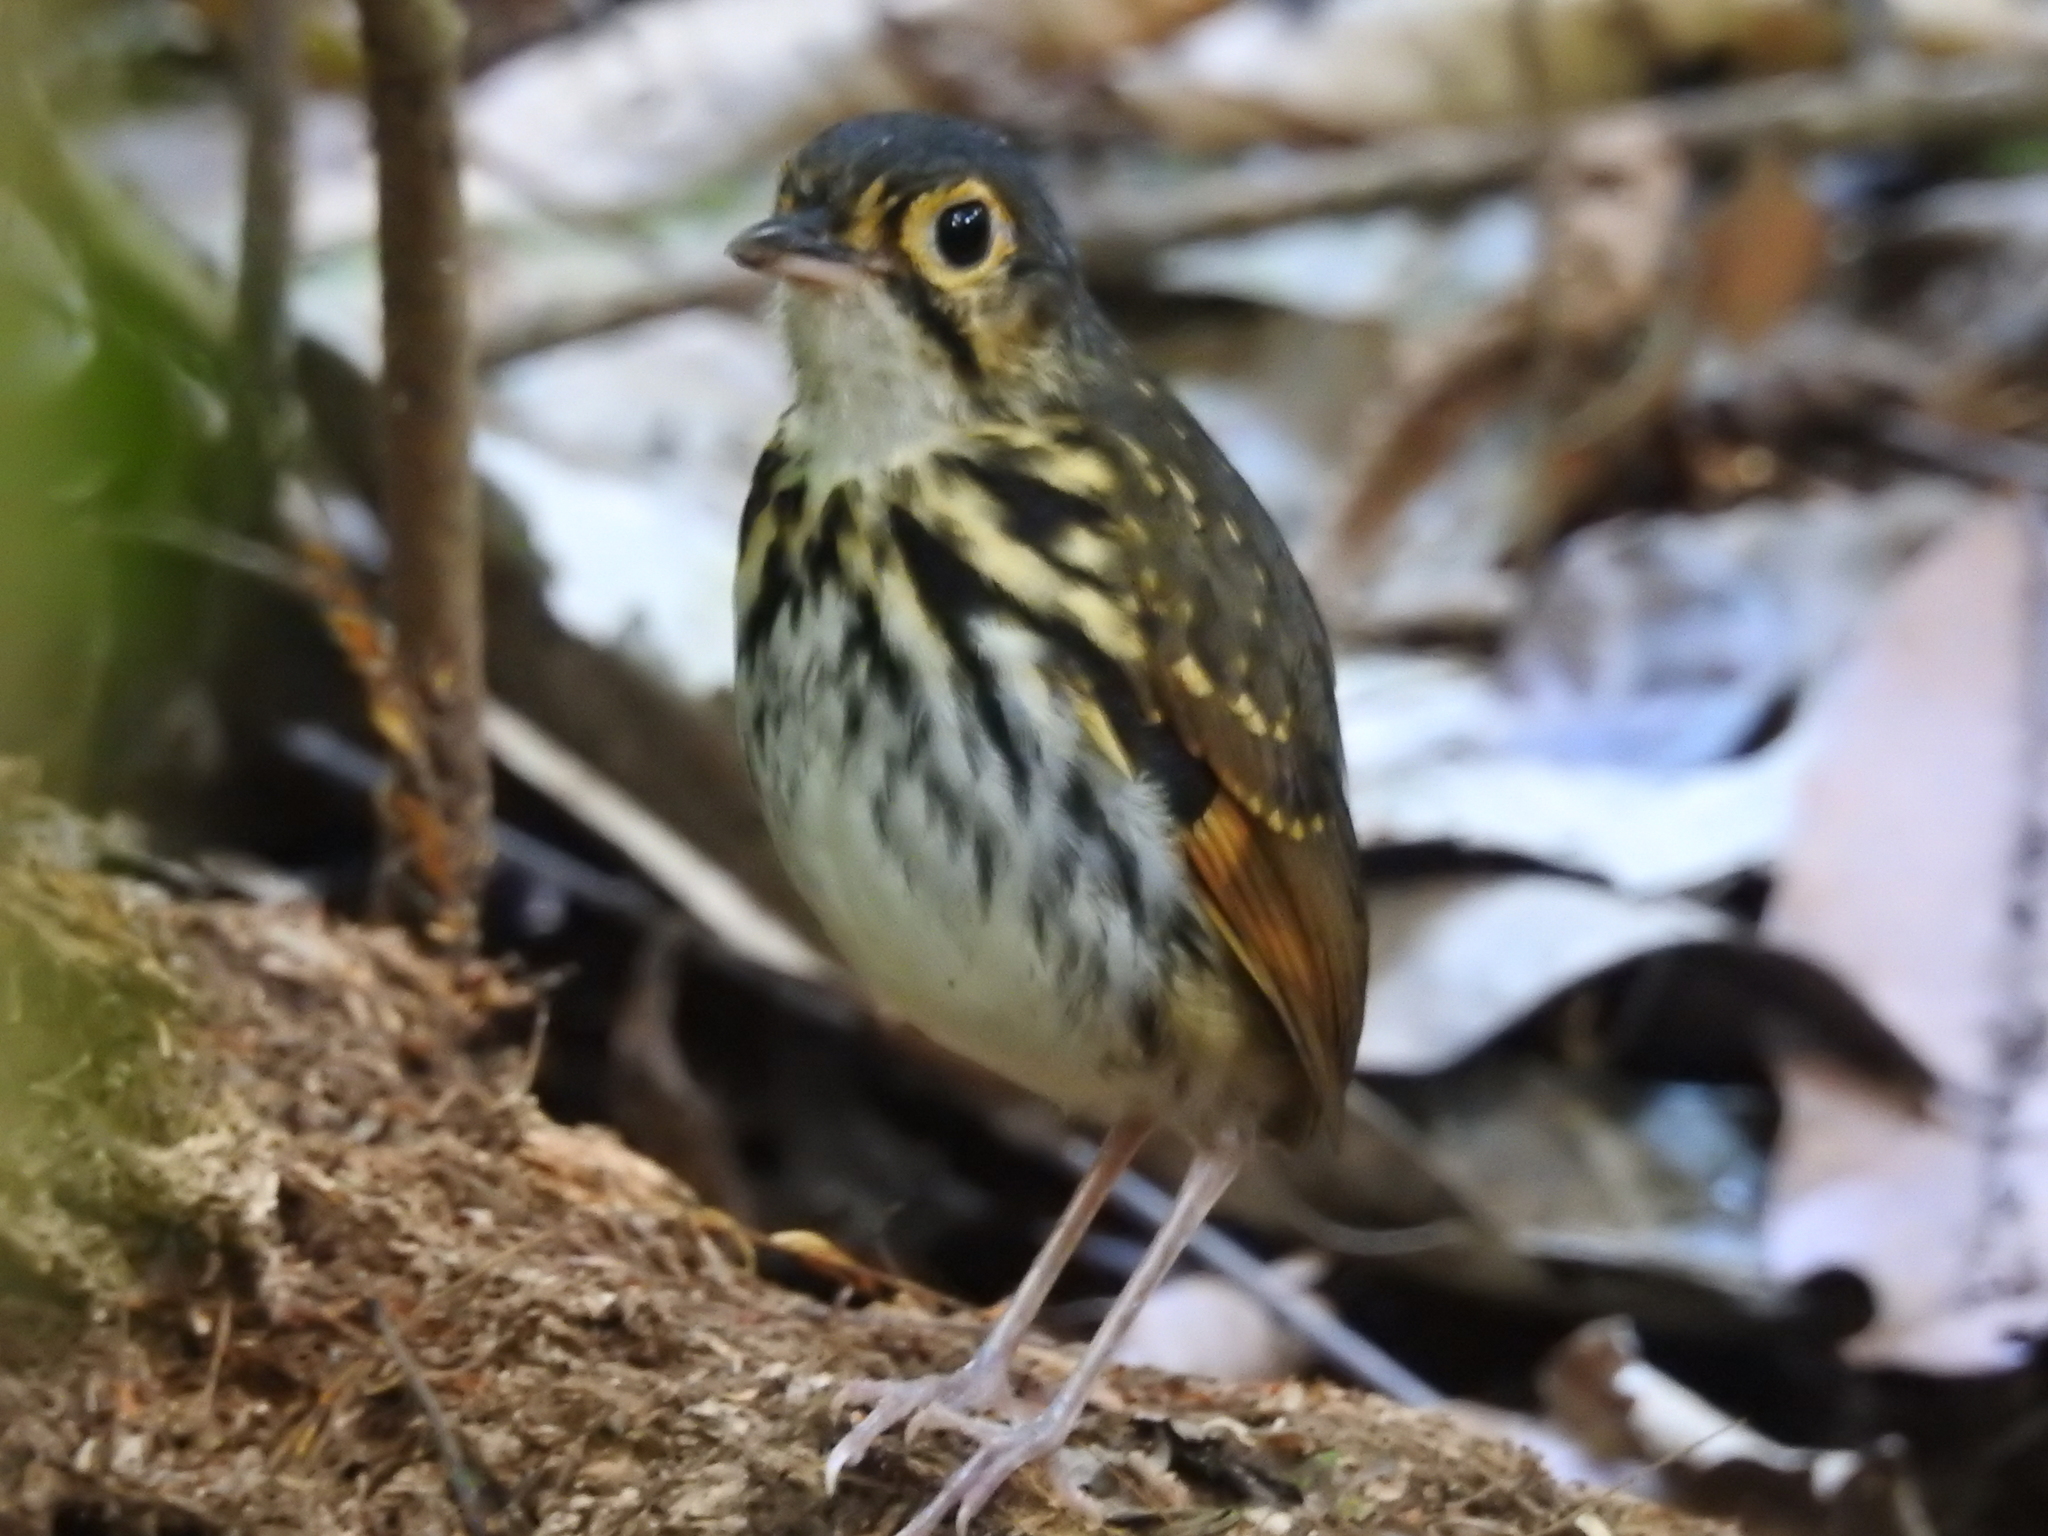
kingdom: Animalia
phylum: Chordata
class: Aves
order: Passeriformes
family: Grallariidae
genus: Hylopezus
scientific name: Hylopezus perspicillatus
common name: Streak-chested antpitta
